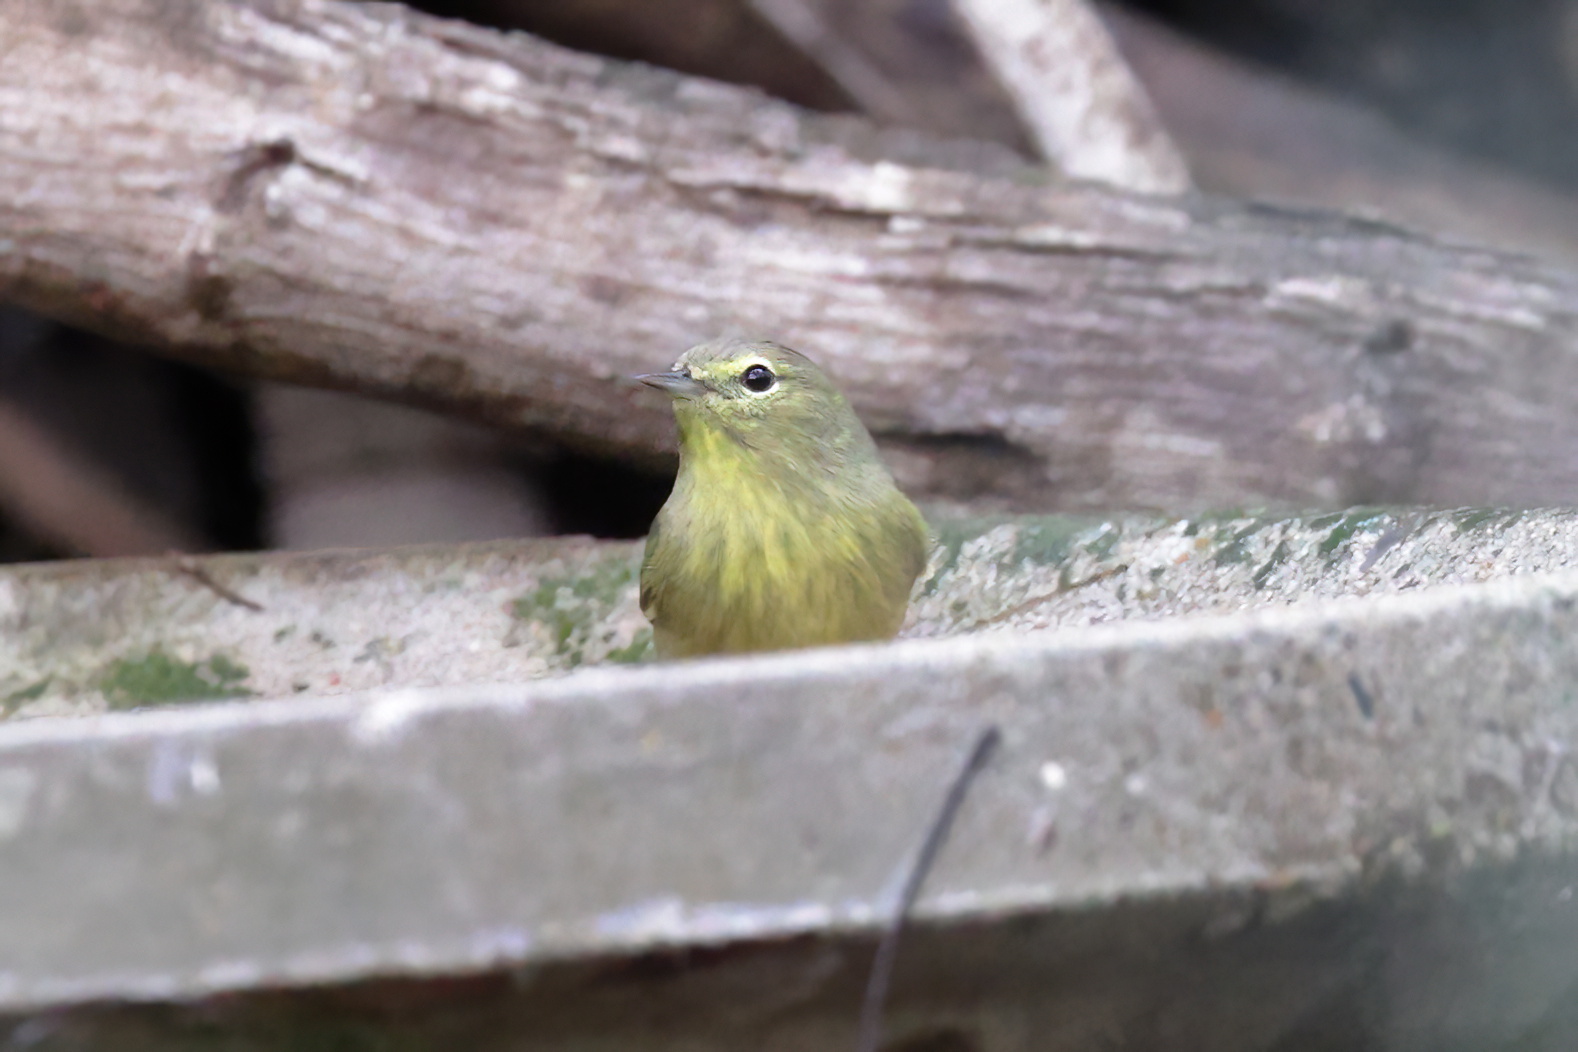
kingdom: Animalia
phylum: Chordata
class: Aves
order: Passeriformes
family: Parulidae
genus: Leiothlypis
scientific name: Leiothlypis celata
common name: Orange-crowned warbler
